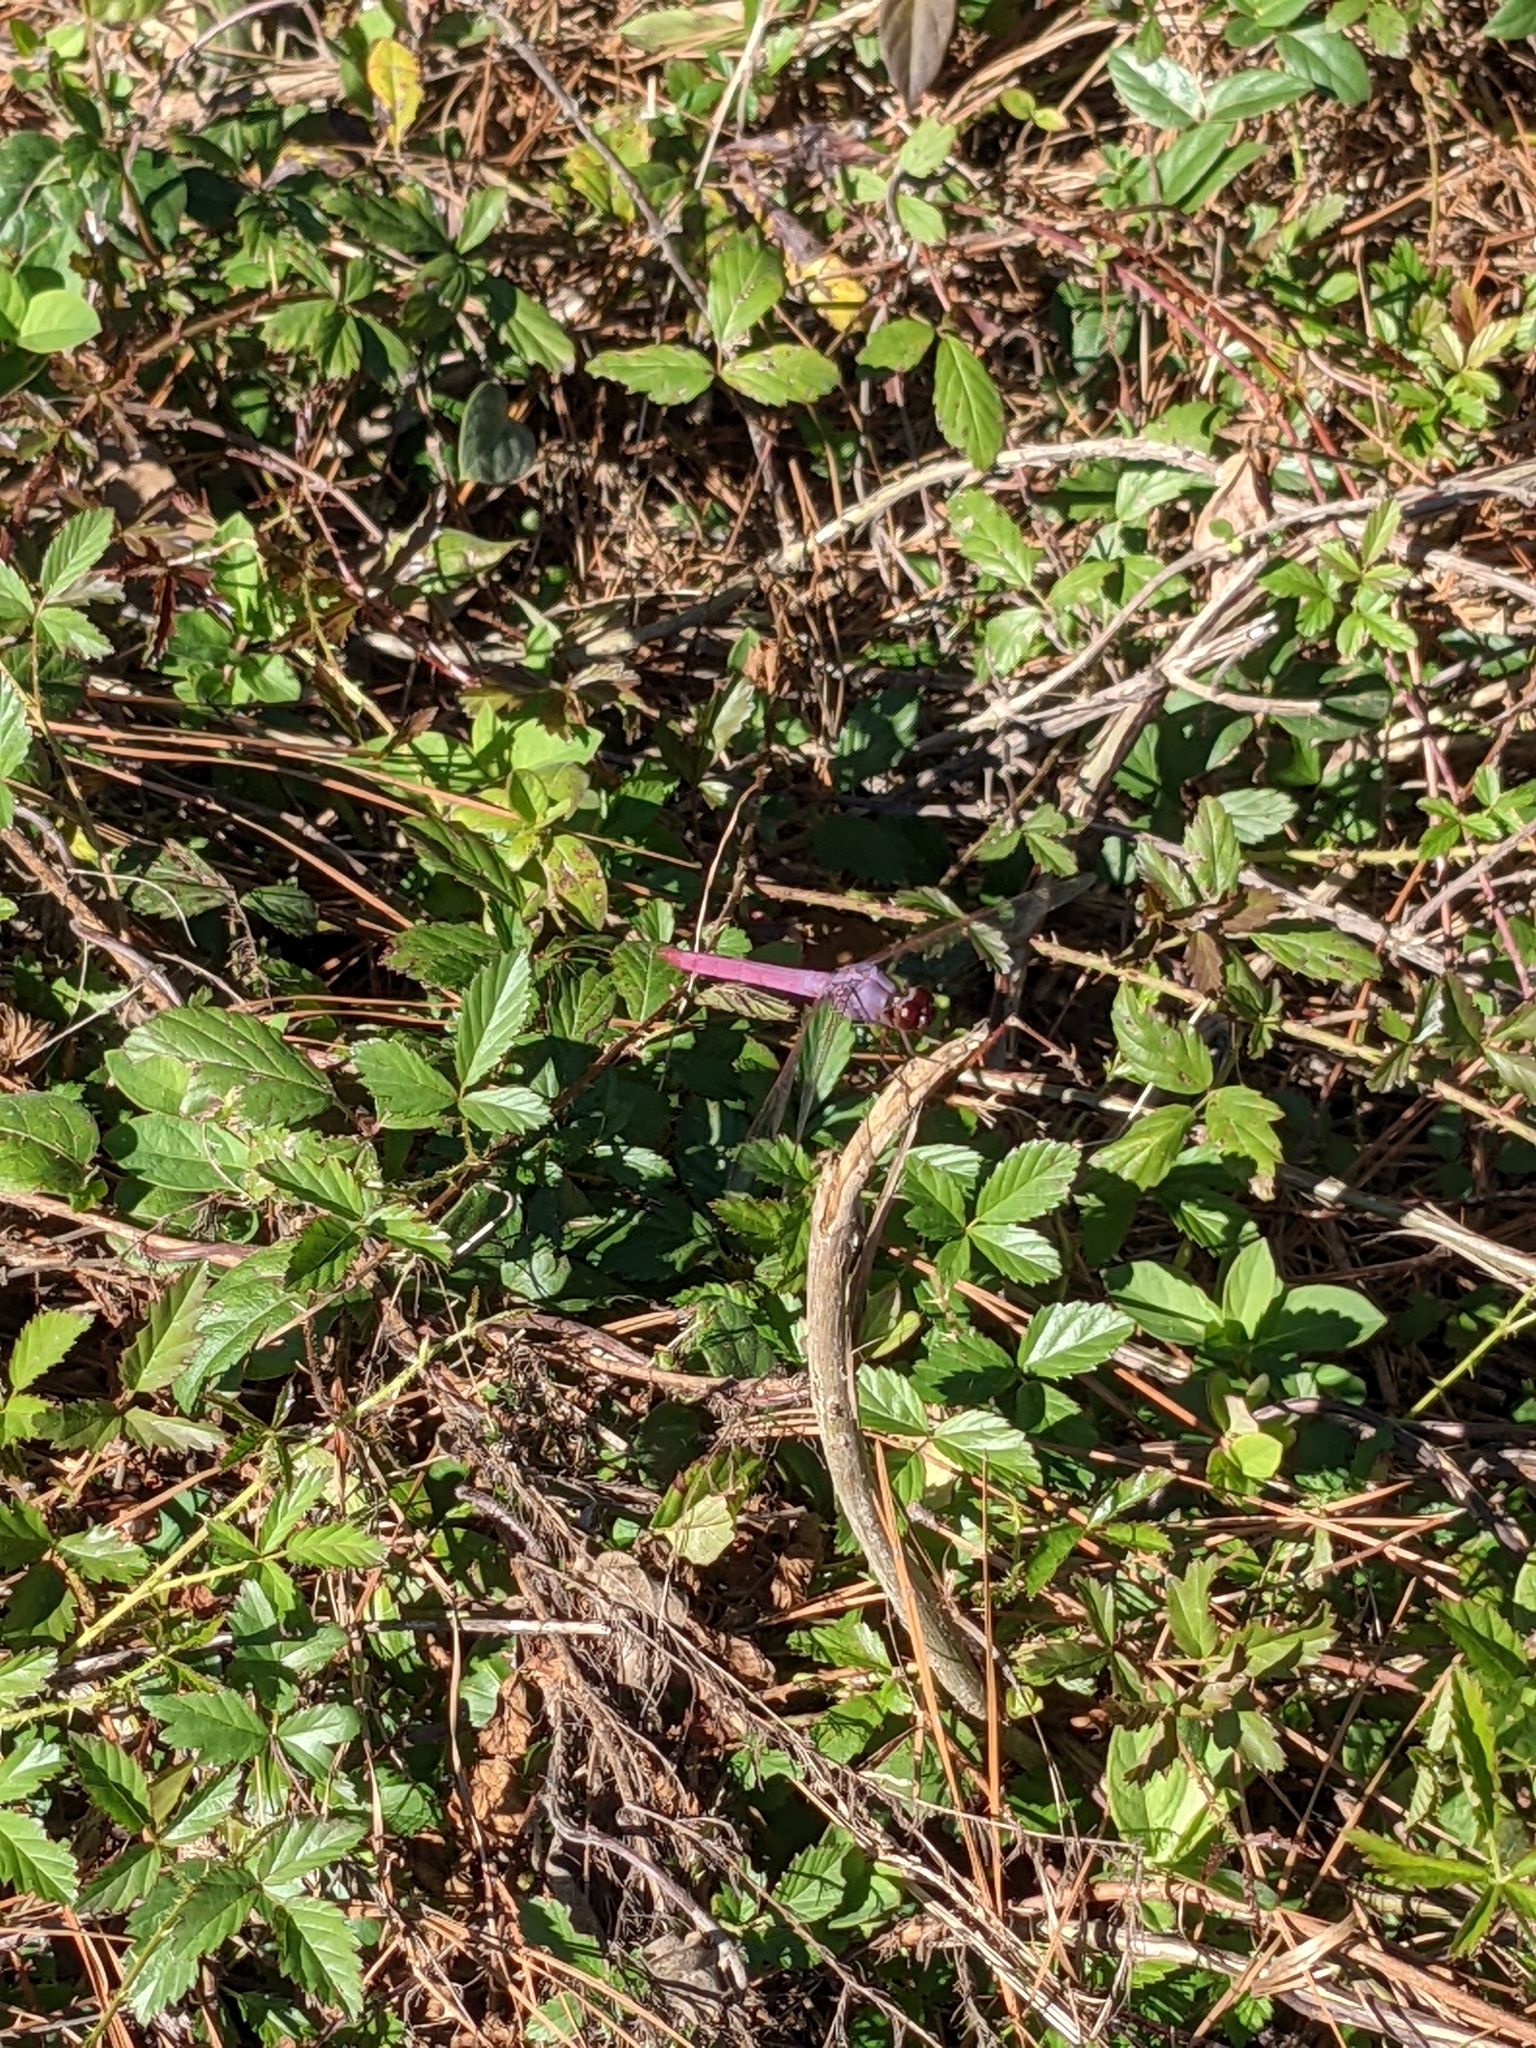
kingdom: Animalia
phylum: Arthropoda
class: Insecta
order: Odonata
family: Libellulidae
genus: Orthemis
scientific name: Orthemis ferruginea
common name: Roseate skimmer
